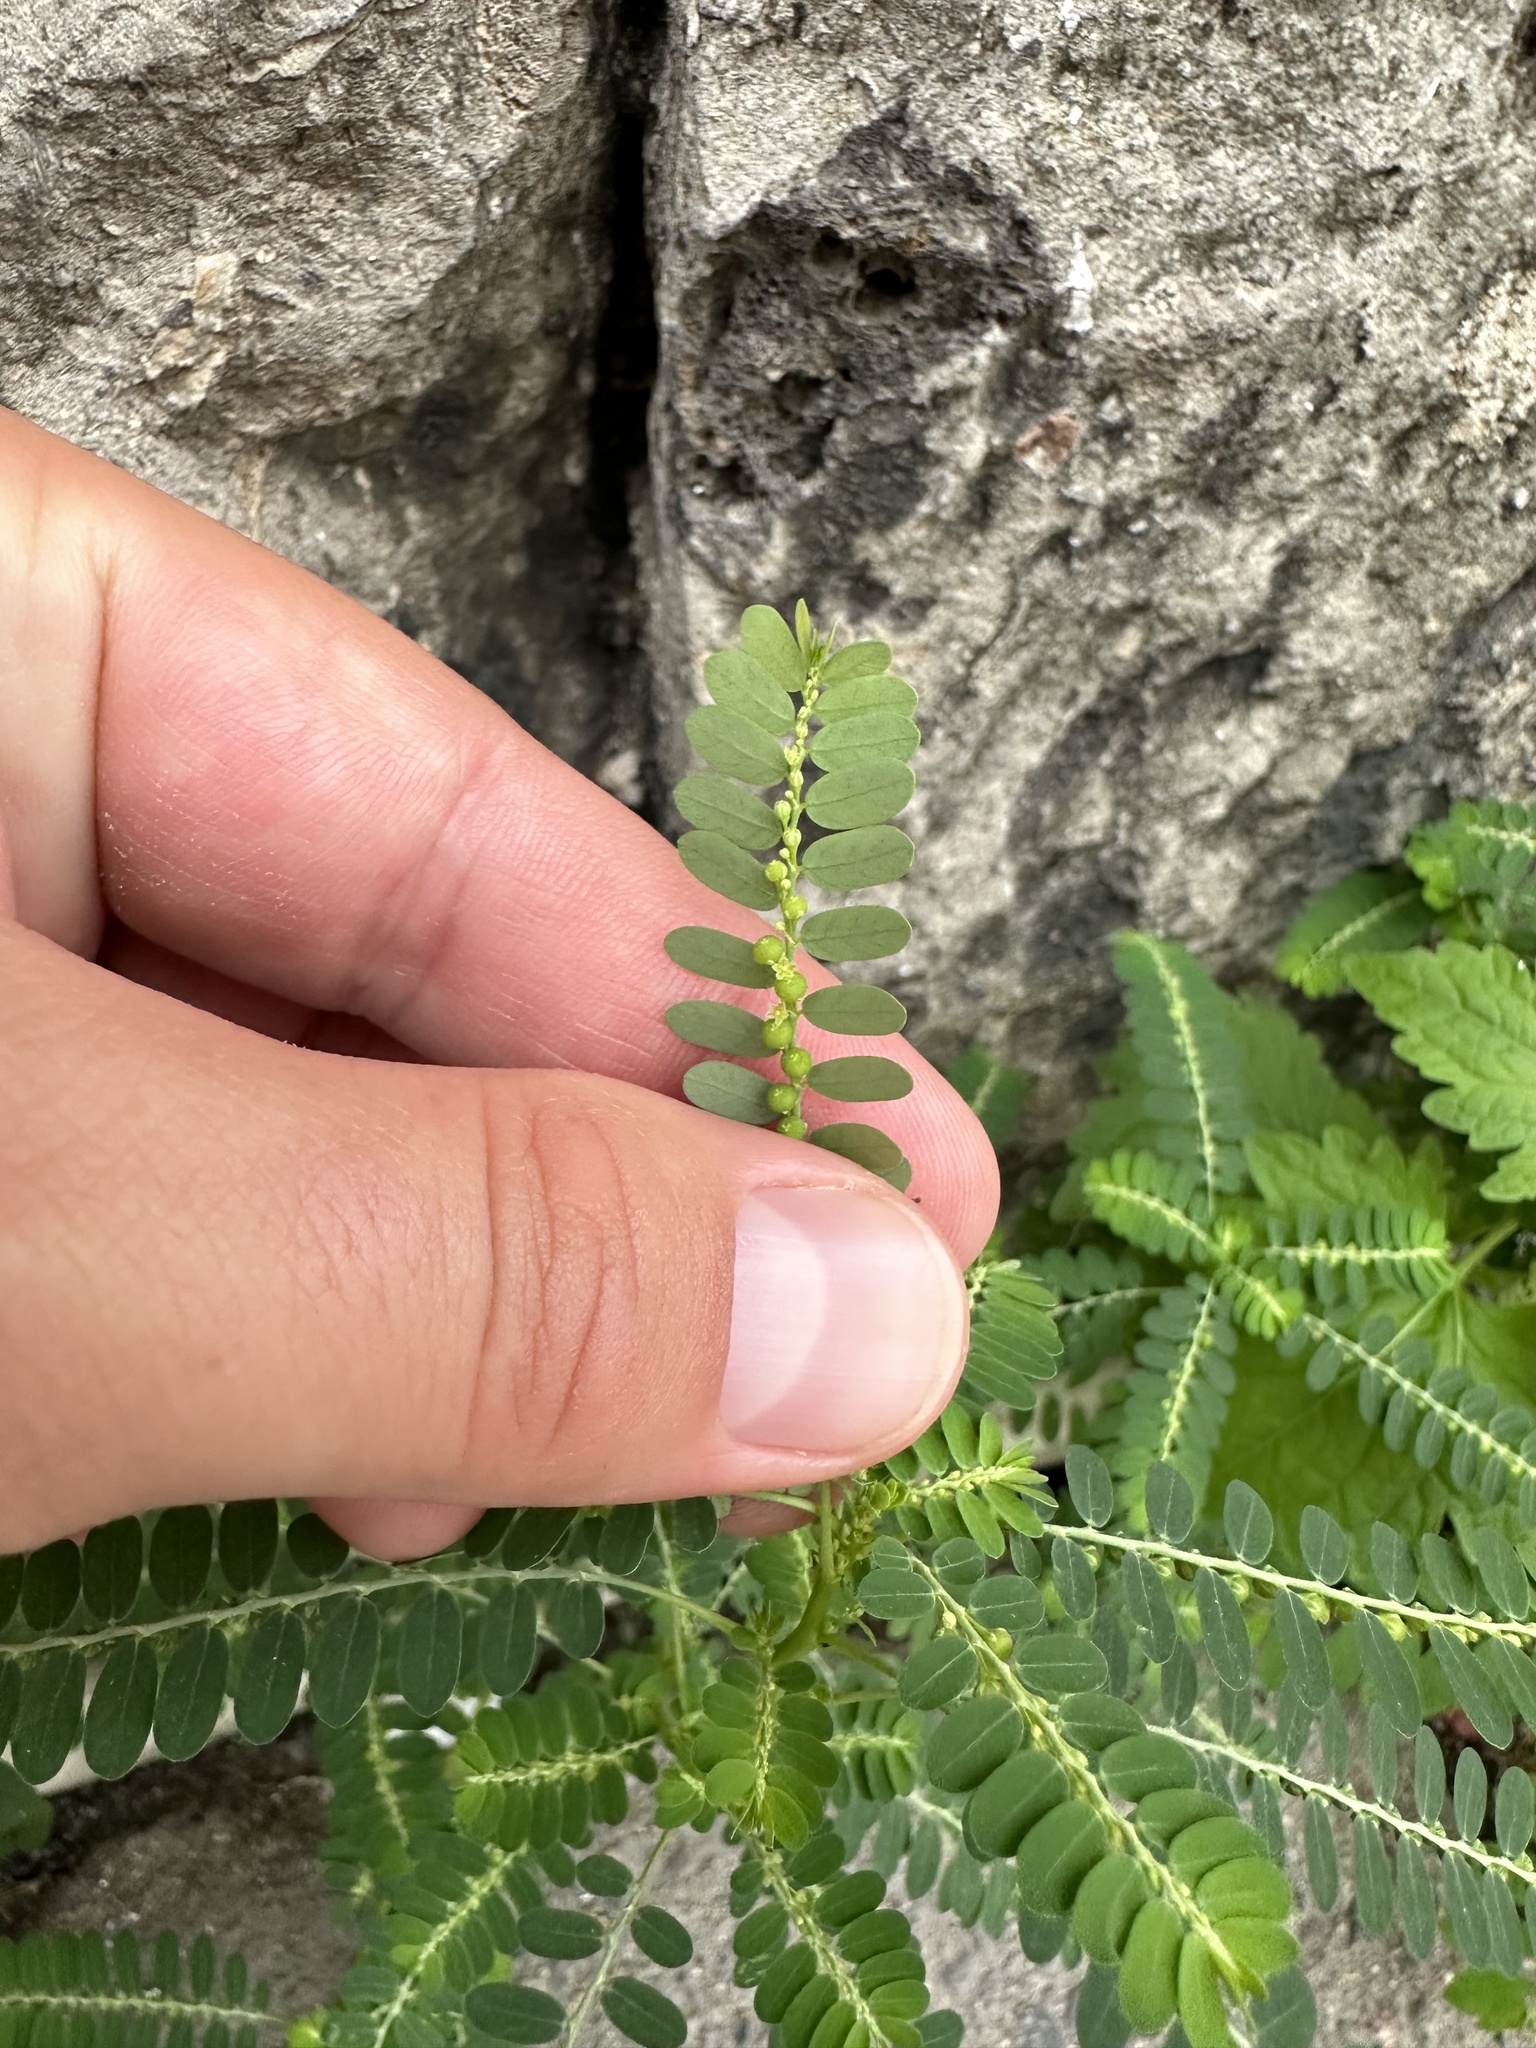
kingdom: Plantae
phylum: Tracheophyta
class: Magnoliopsida
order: Malpighiales
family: Phyllanthaceae
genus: Phyllanthus
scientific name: Phyllanthus amarus
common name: Carry me seed
